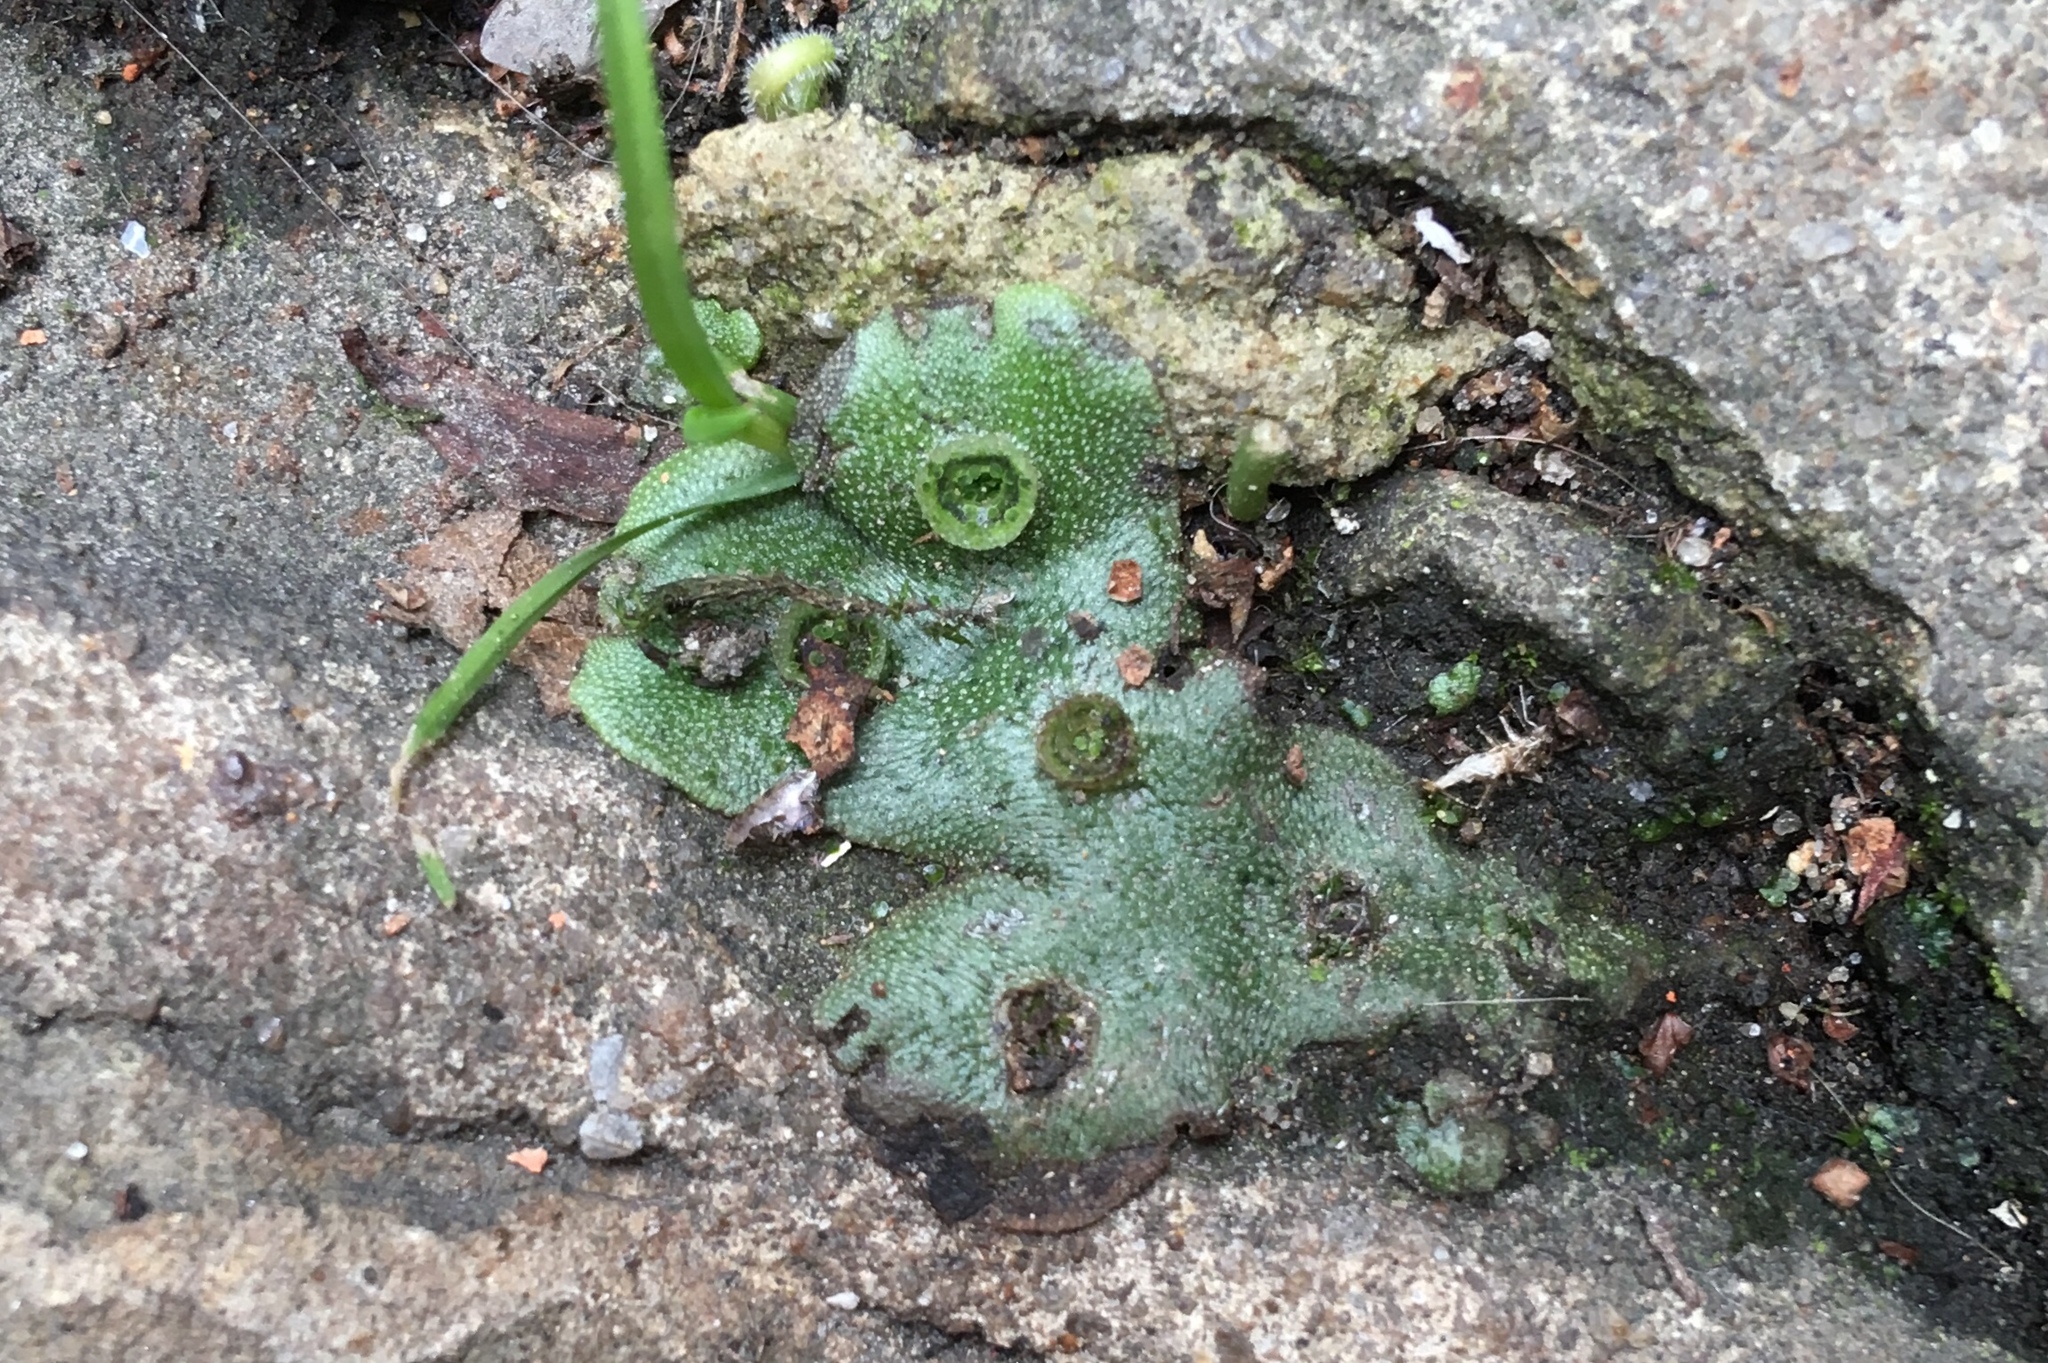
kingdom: Plantae
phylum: Marchantiophyta
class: Marchantiopsida
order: Marchantiales
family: Marchantiaceae
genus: Marchantia
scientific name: Marchantia polymorpha
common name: Common liverwort
